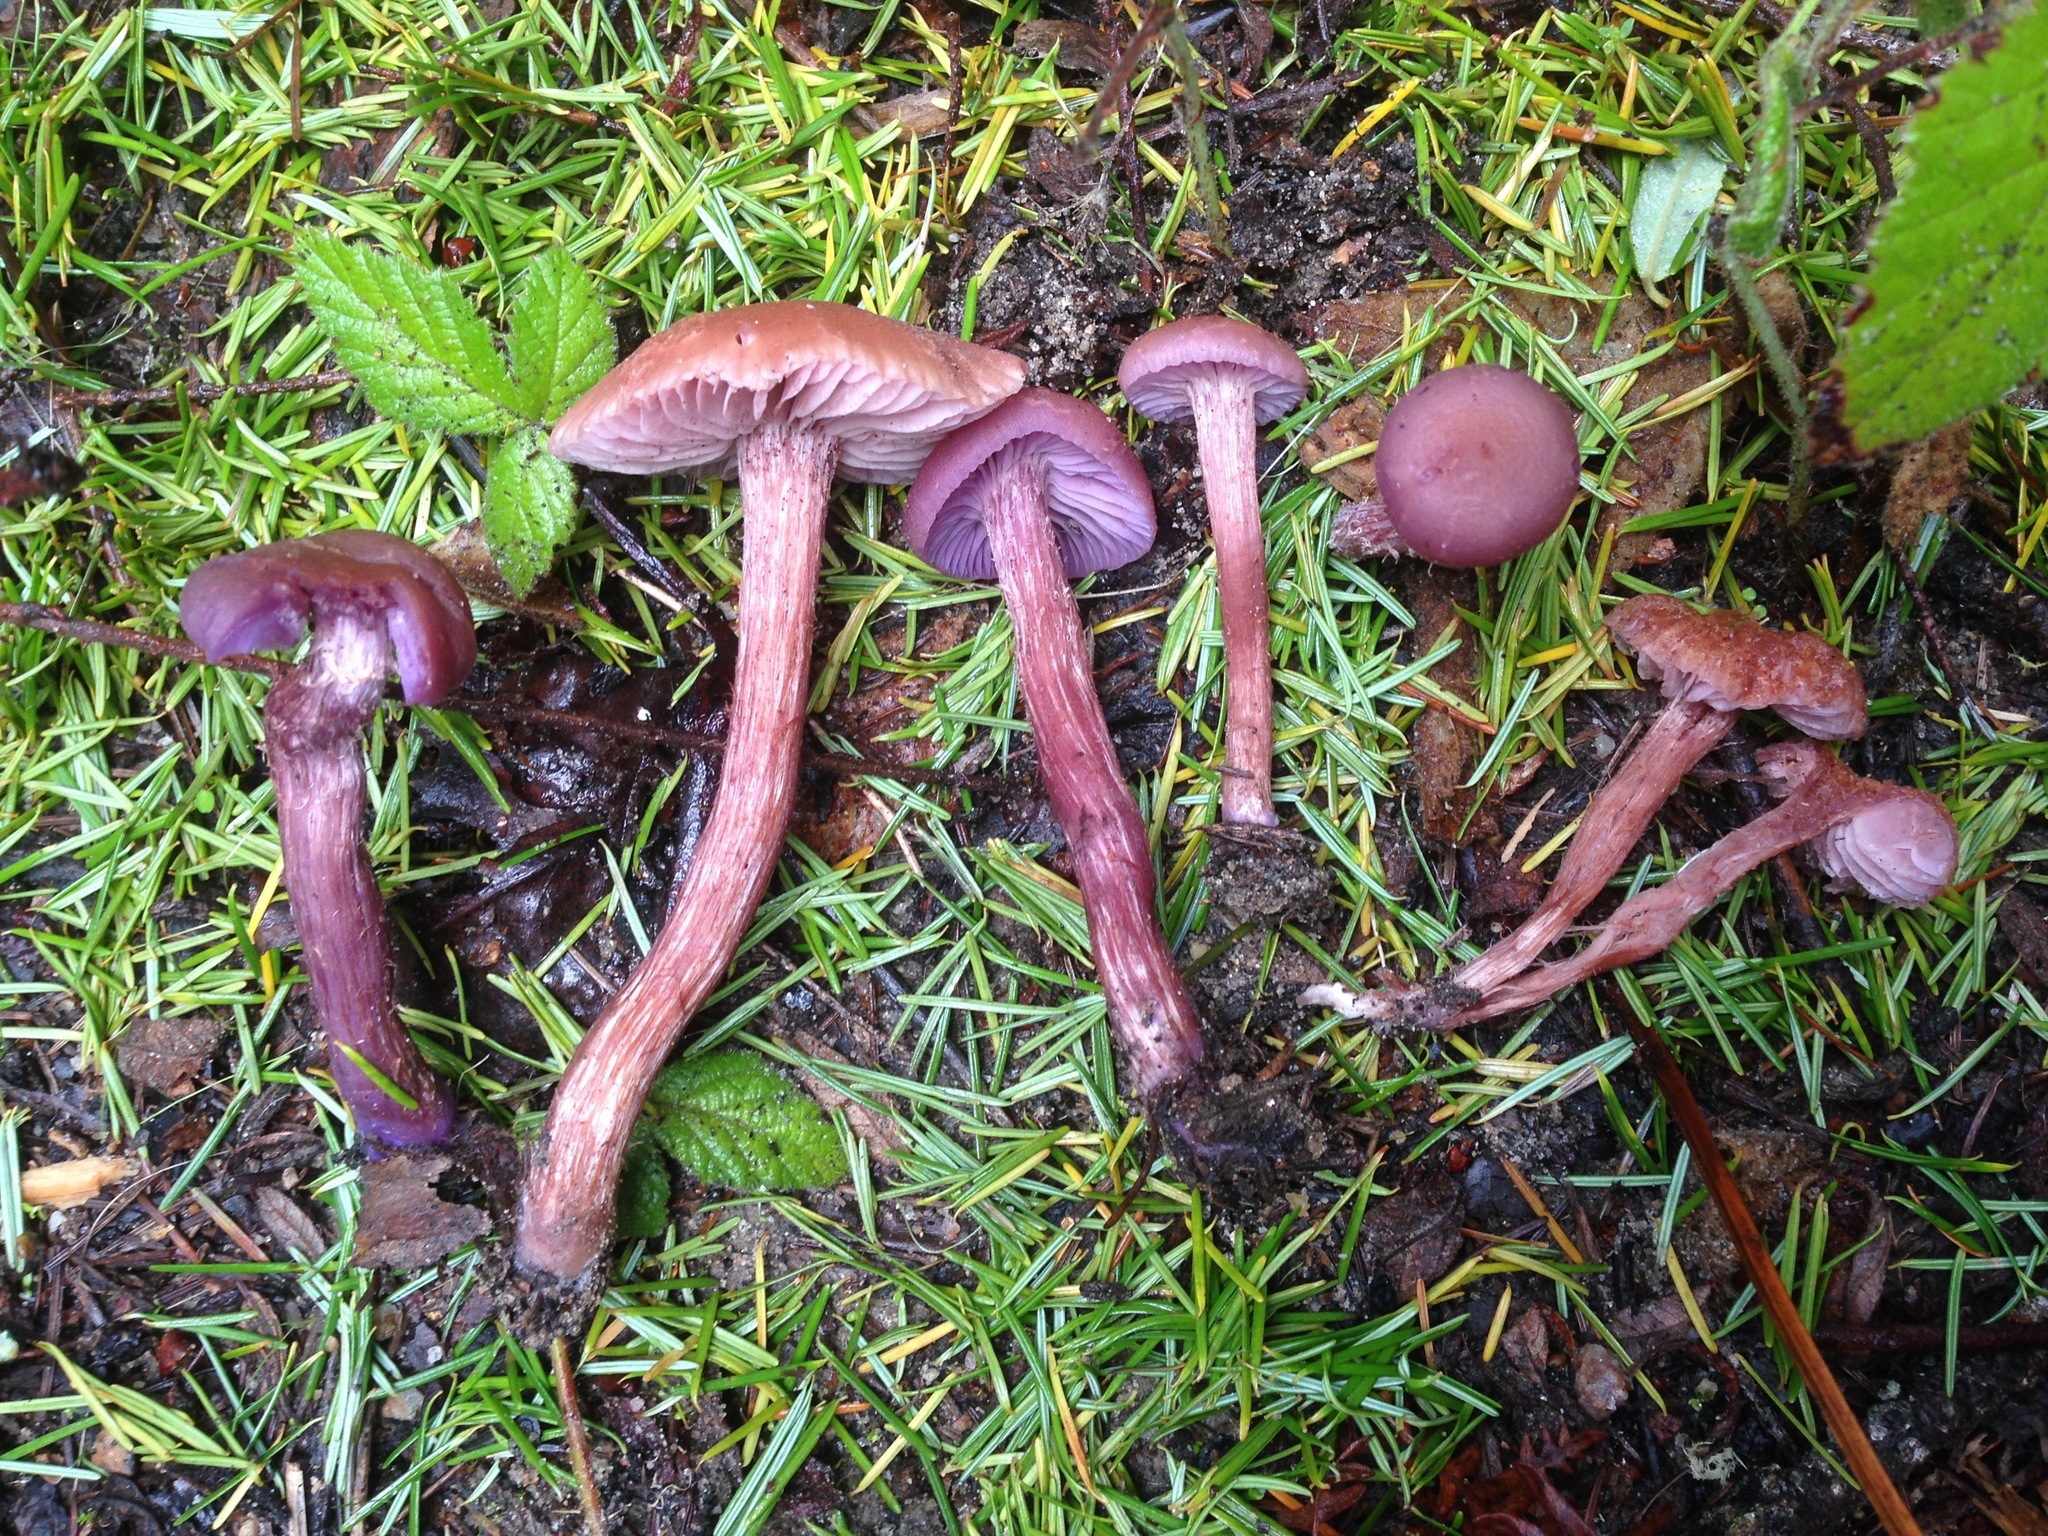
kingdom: Fungi
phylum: Basidiomycota
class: Agaricomycetes
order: Agaricales
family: Hydnangiaceae
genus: Laccaria
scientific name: Laccaria amethysteo-occidentalis
